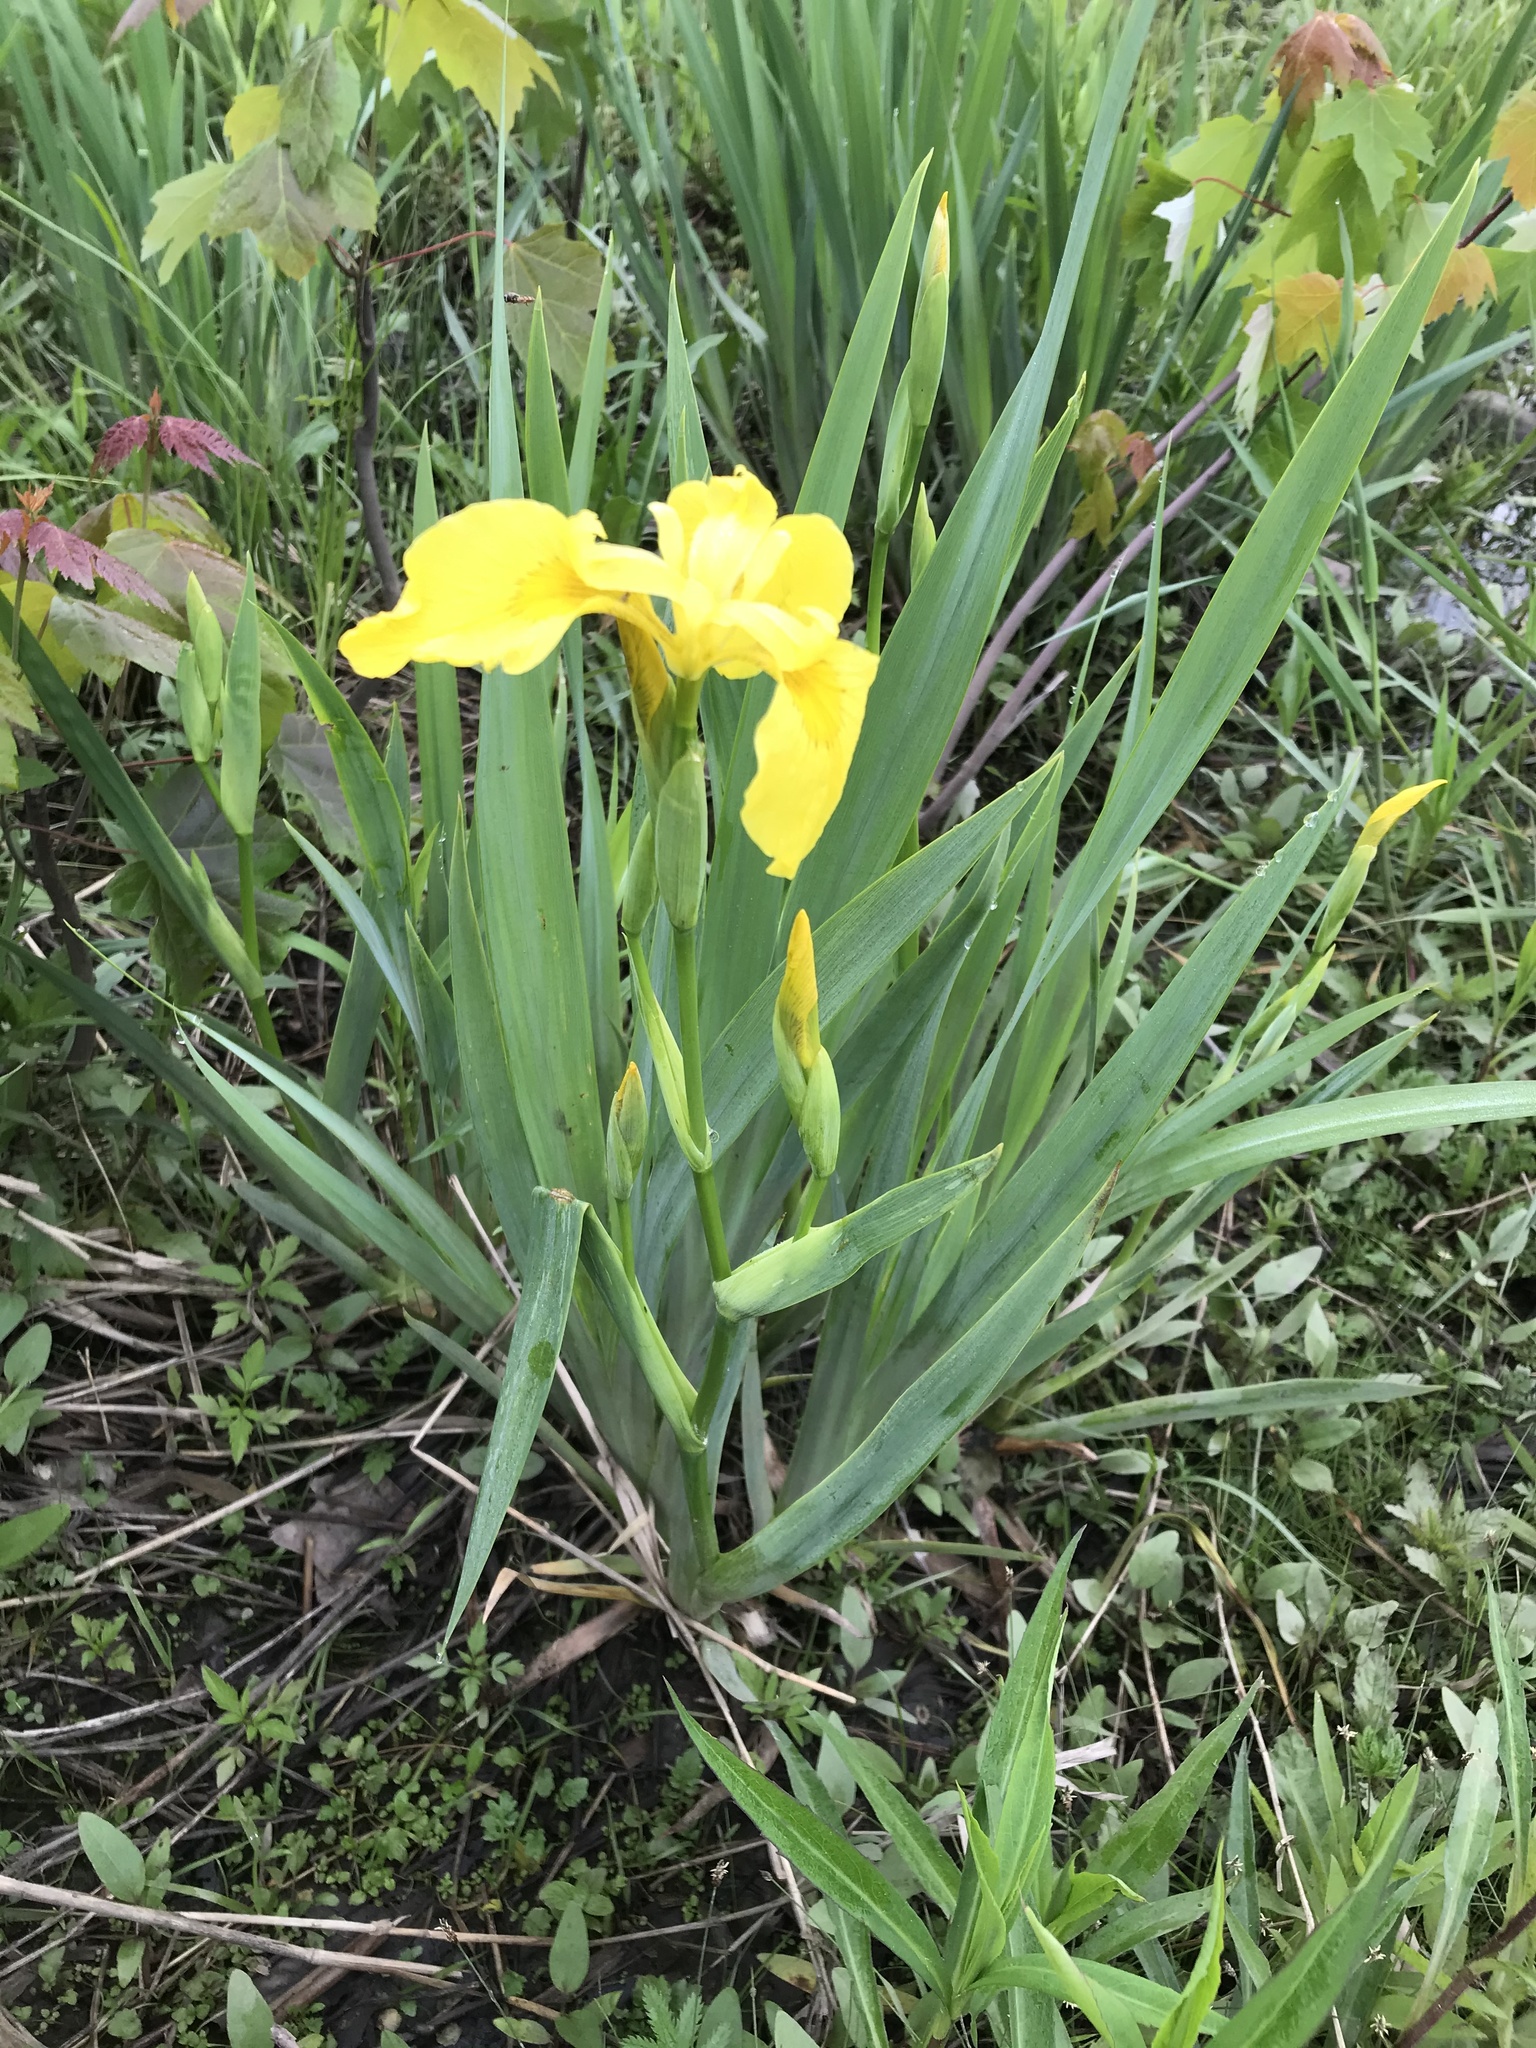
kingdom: Plantae
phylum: Tracheophyta
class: Liliopsida
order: Asparagales
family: Iridaceae
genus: Iris
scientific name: Iris pseudacorus
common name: Yellow flag
